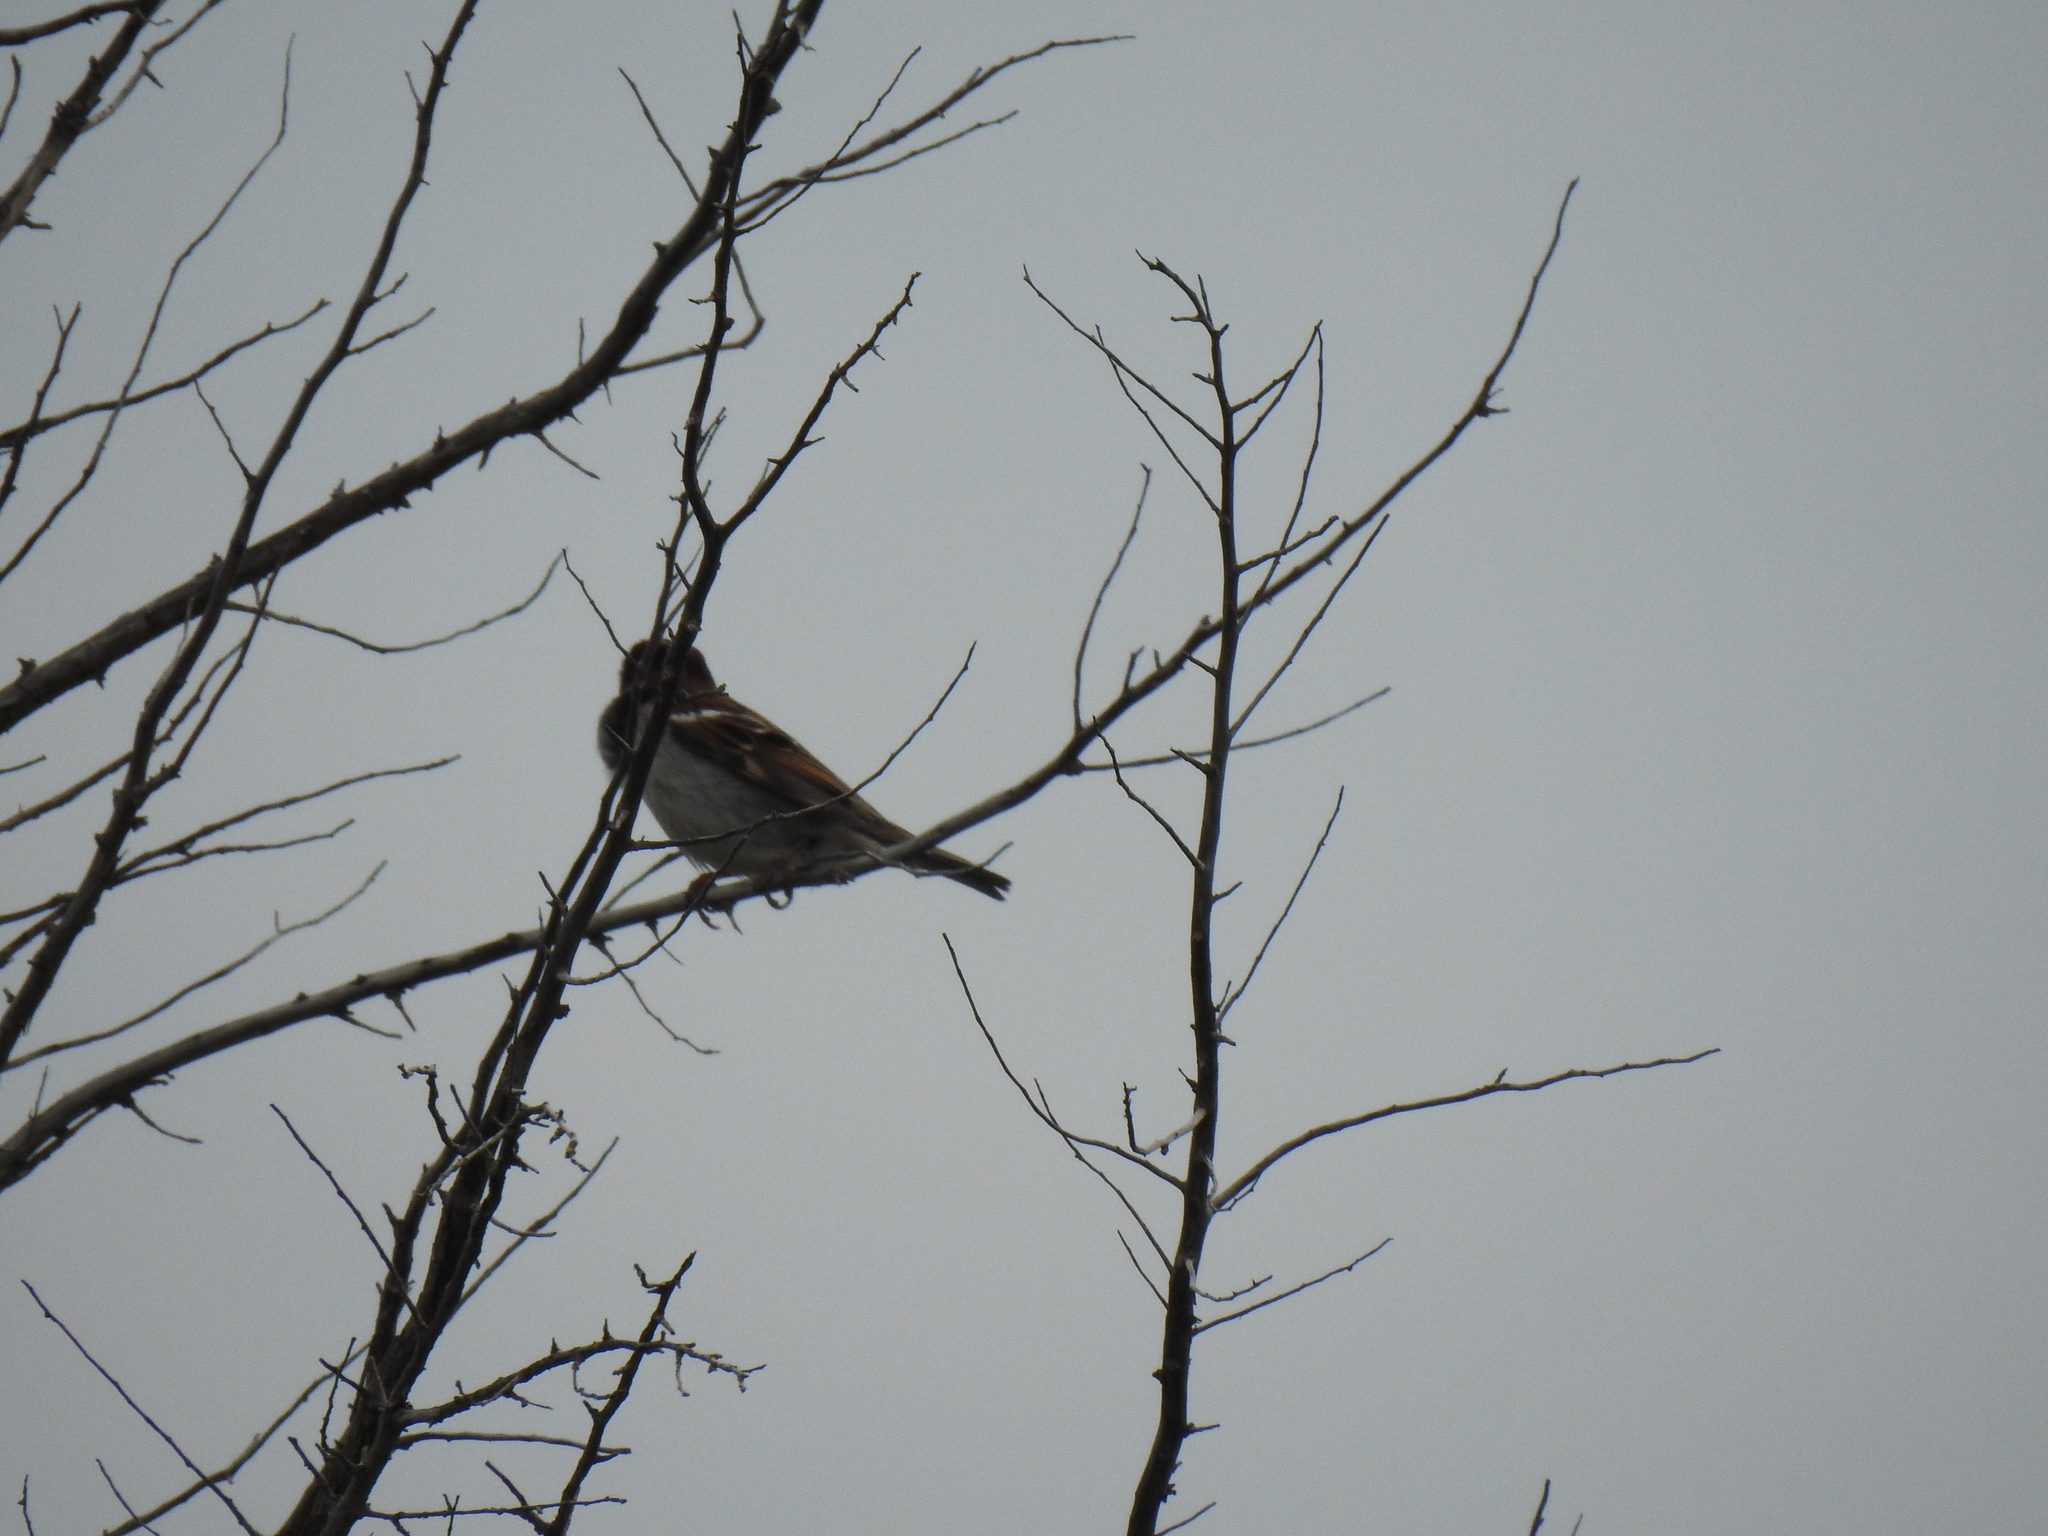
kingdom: Animalia
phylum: Chordata
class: Aves
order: Passeriformes
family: Passeridae
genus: Passer
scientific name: Passer domesticus
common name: House sparrow
